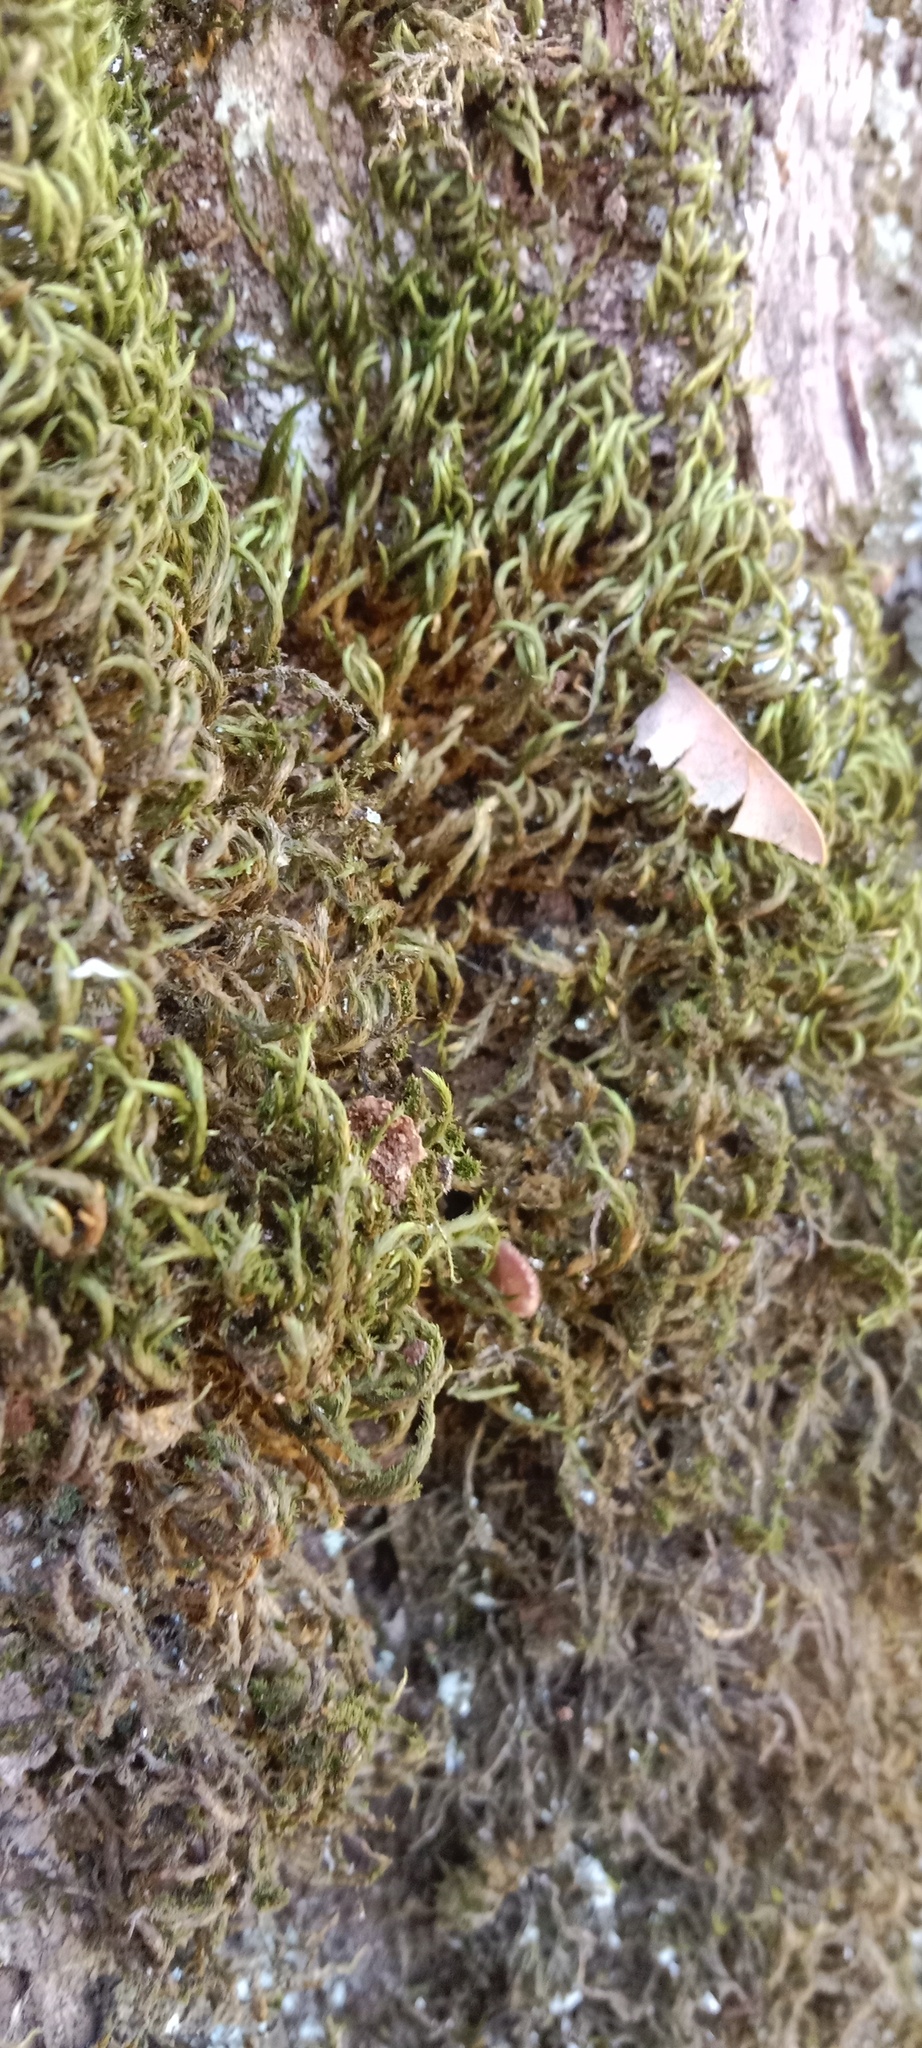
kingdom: Plantae
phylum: Bryophyta
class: Bryopsida
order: Hypnales
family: Leucodontaceae
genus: Leucodon
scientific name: Leucodon sciuroides
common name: Squirrel-tail moss
